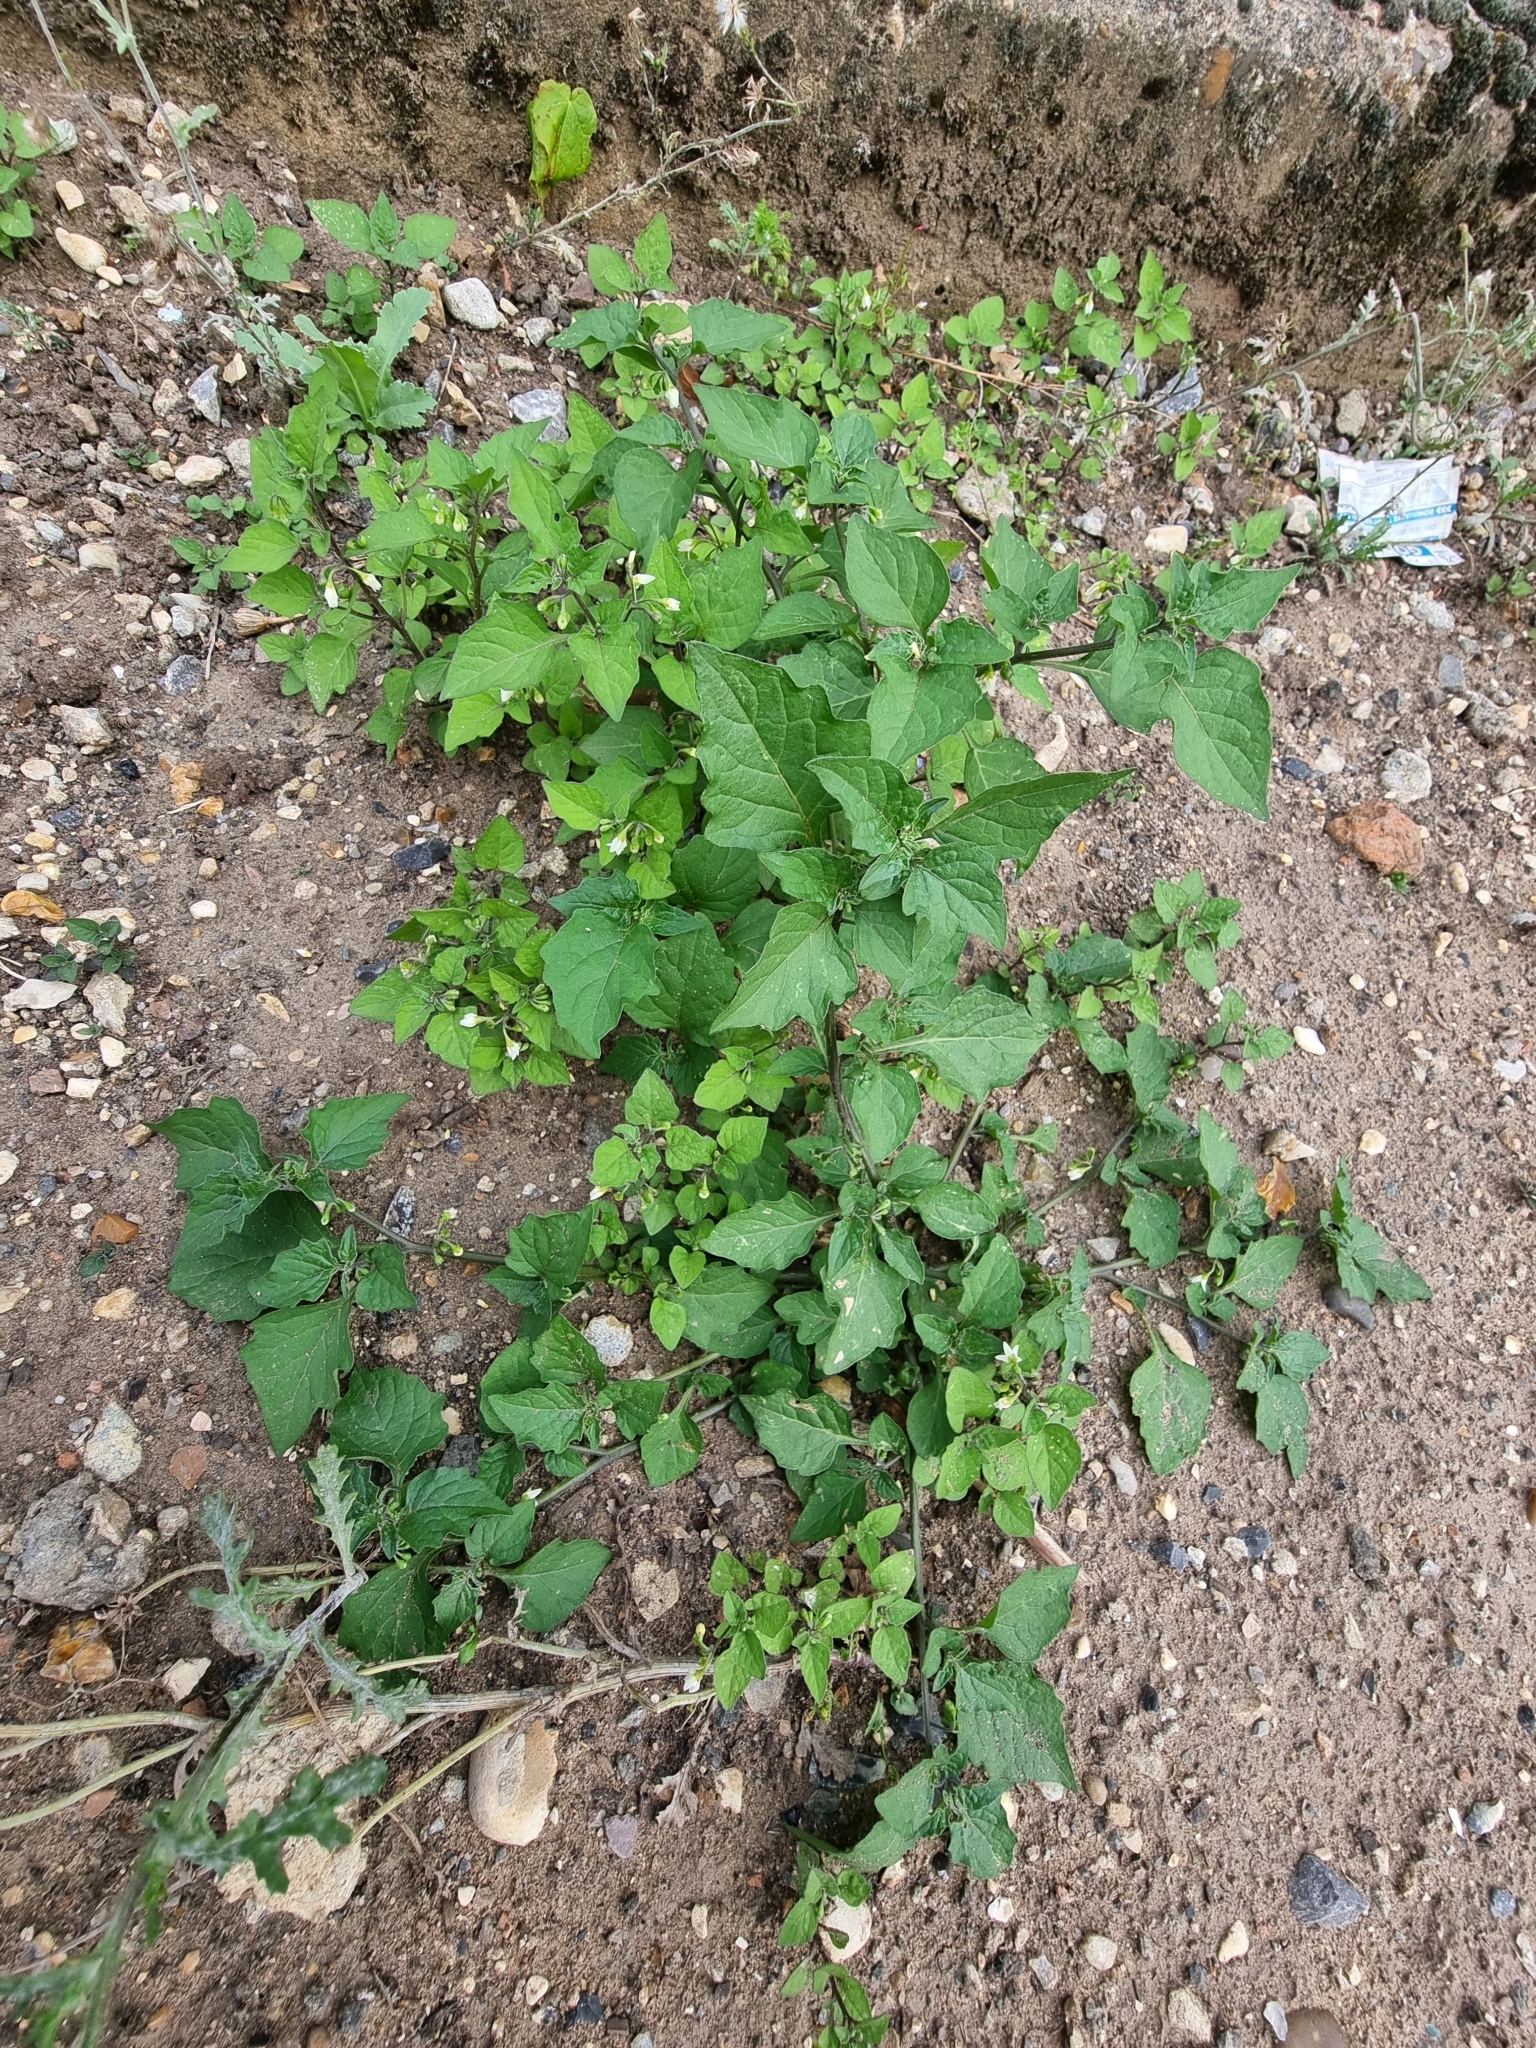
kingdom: Plantae
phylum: Tracheophyta
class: Magnoliopsida
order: Solanales
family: Solanaceae
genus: Solanum
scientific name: Solanum nigrum
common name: Black nightshade
